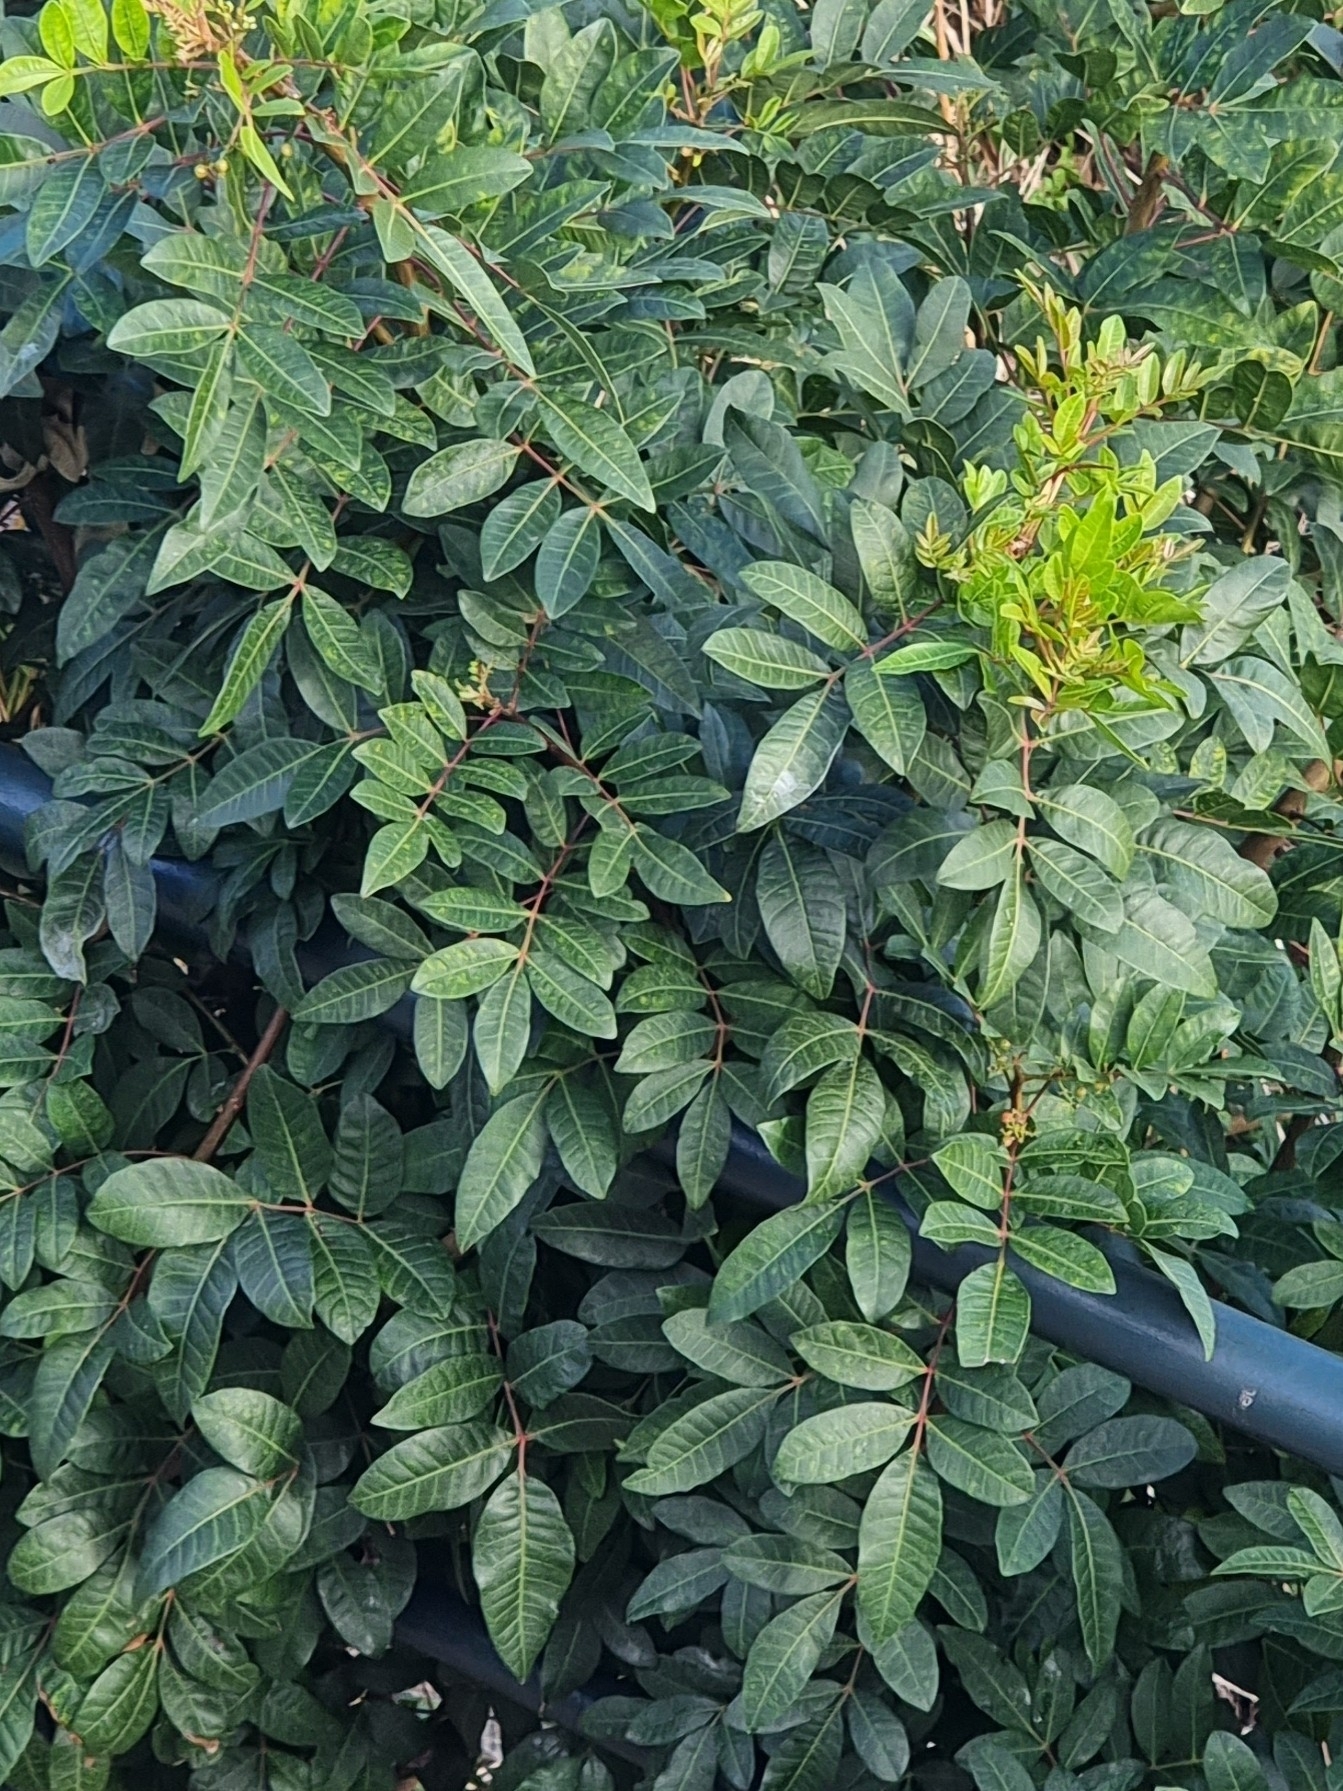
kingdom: Plantae
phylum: Tracheophyta
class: Magnoliopsida
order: Sapindales
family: Anacardiaceae
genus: Schinus
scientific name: Schinus terebinthifolia
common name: Brazilian peppertree
